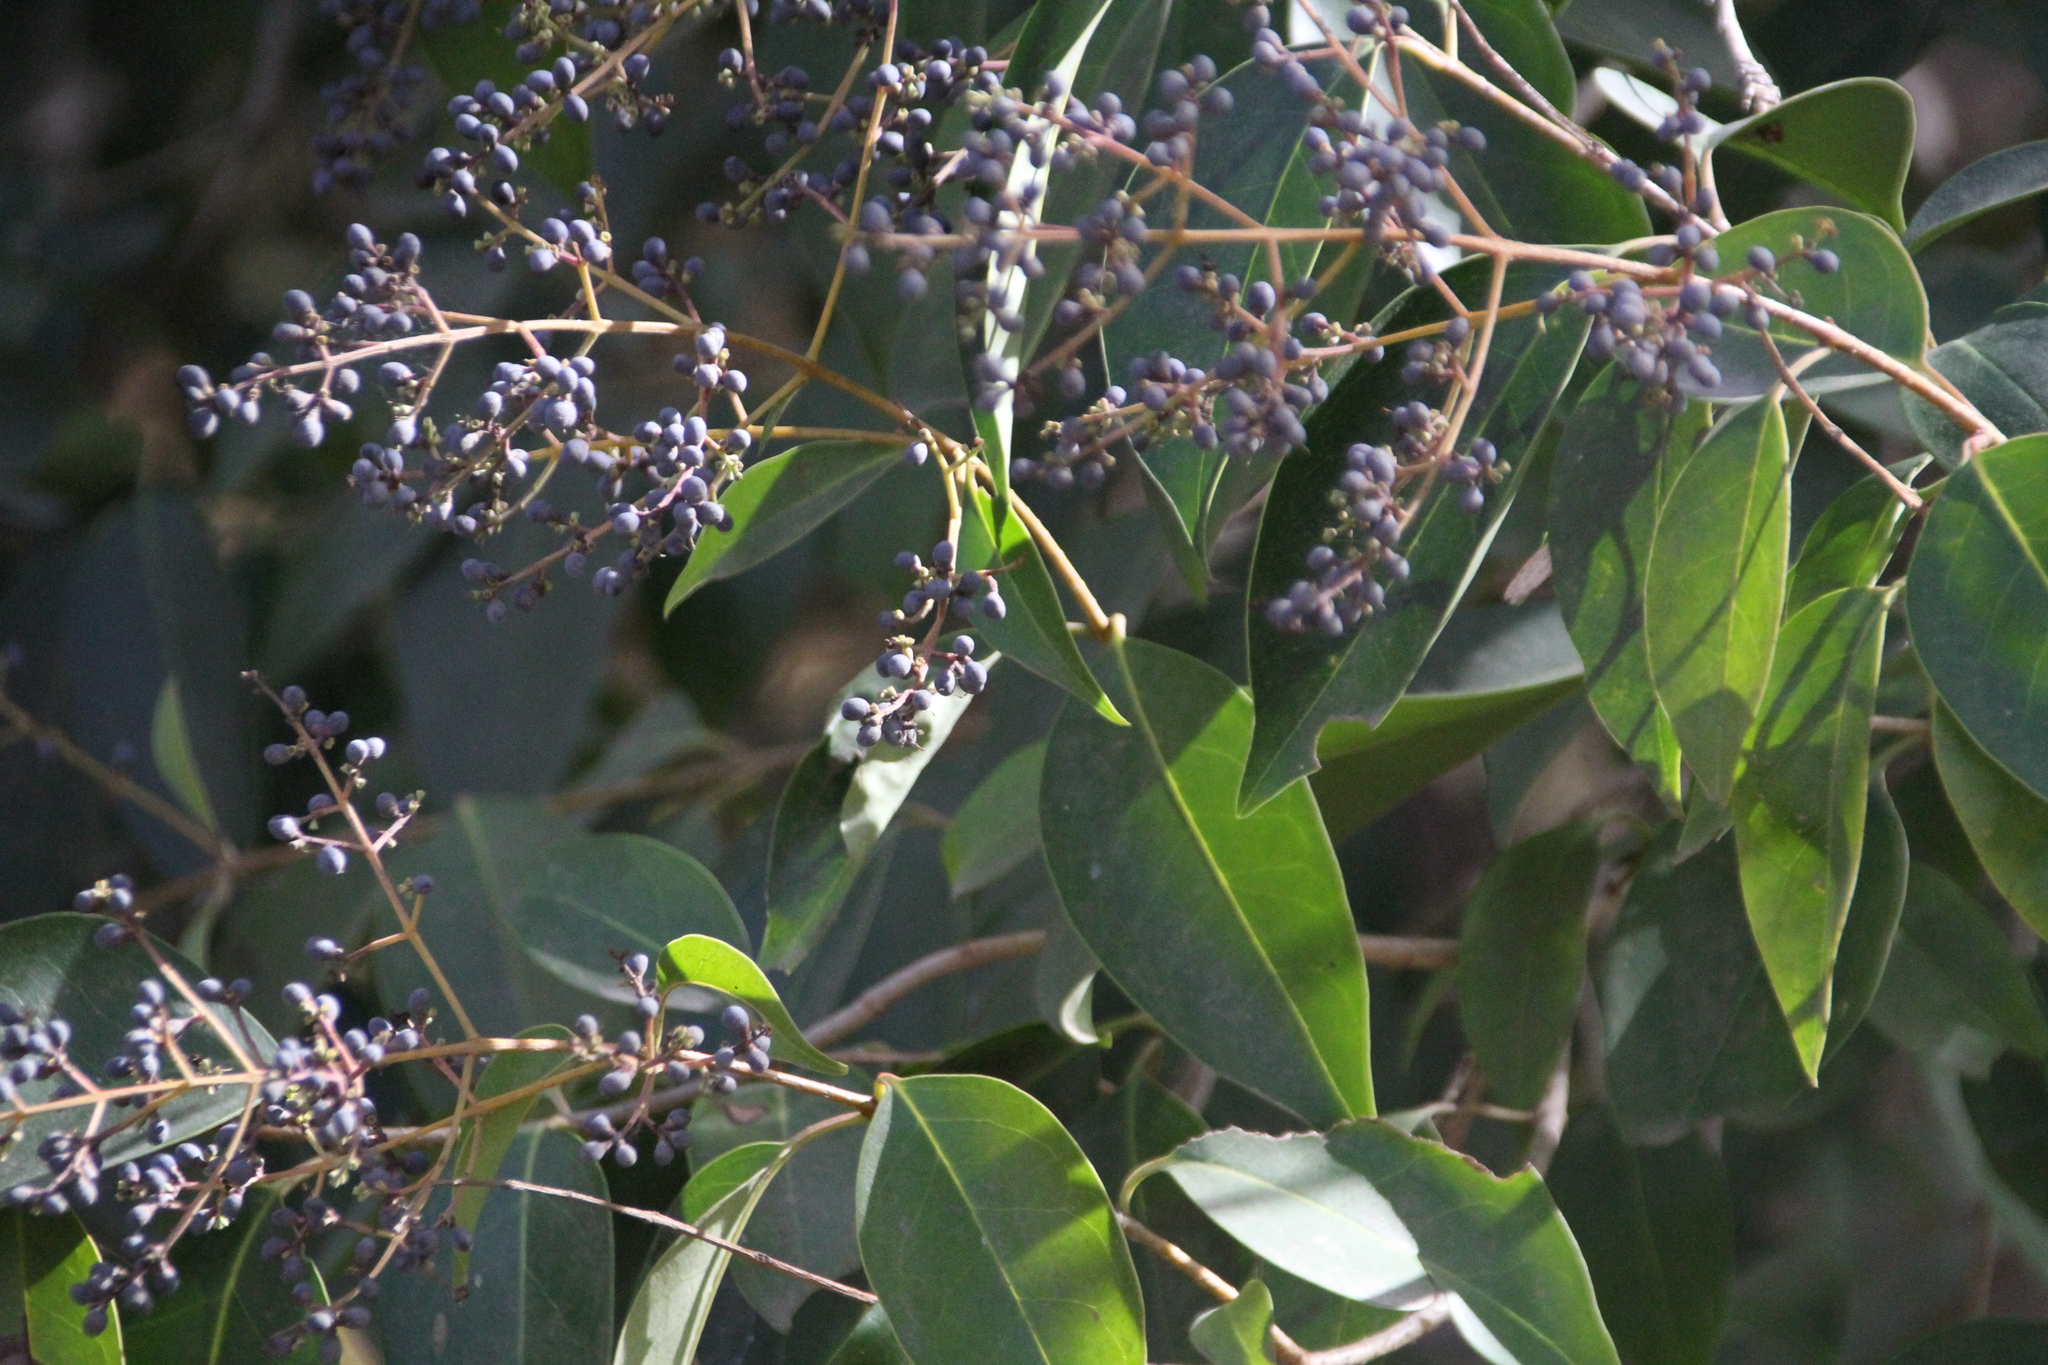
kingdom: Plantae
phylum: Tracheophyta
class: Magnoliopsida
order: Lamiales
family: Oleaceae
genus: Ligustrum
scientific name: Ligustrum lucidum
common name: Glossy privet
